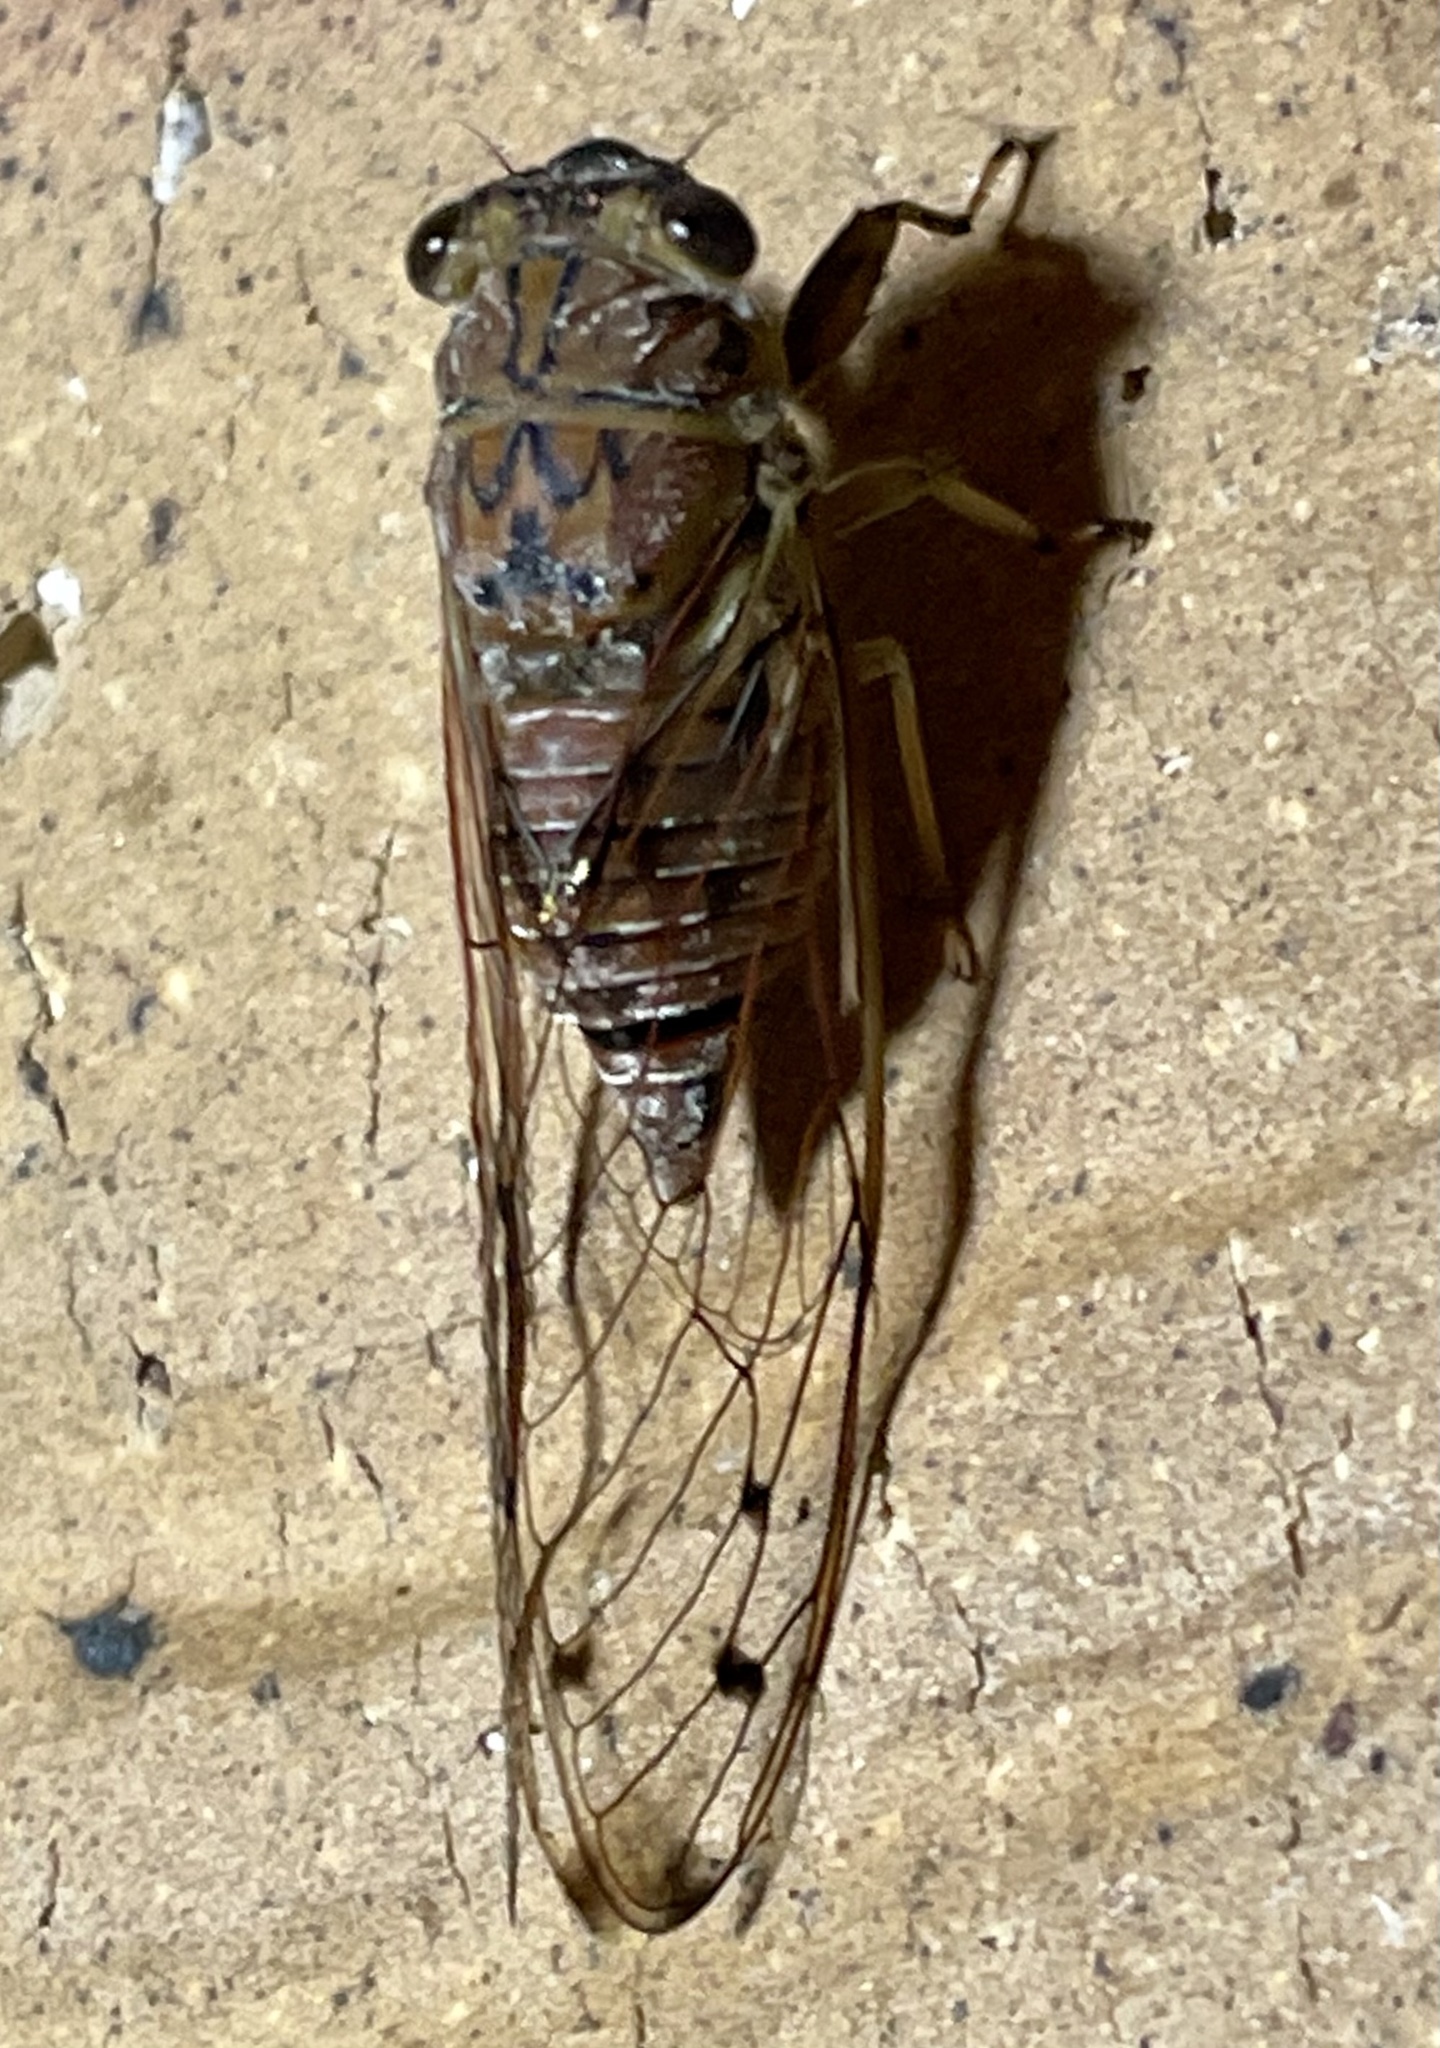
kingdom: Animalia
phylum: Arthropoda
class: Insecta
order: Hemiptera
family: Cicadidae
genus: Tamasa
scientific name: Tamasa tristigma
